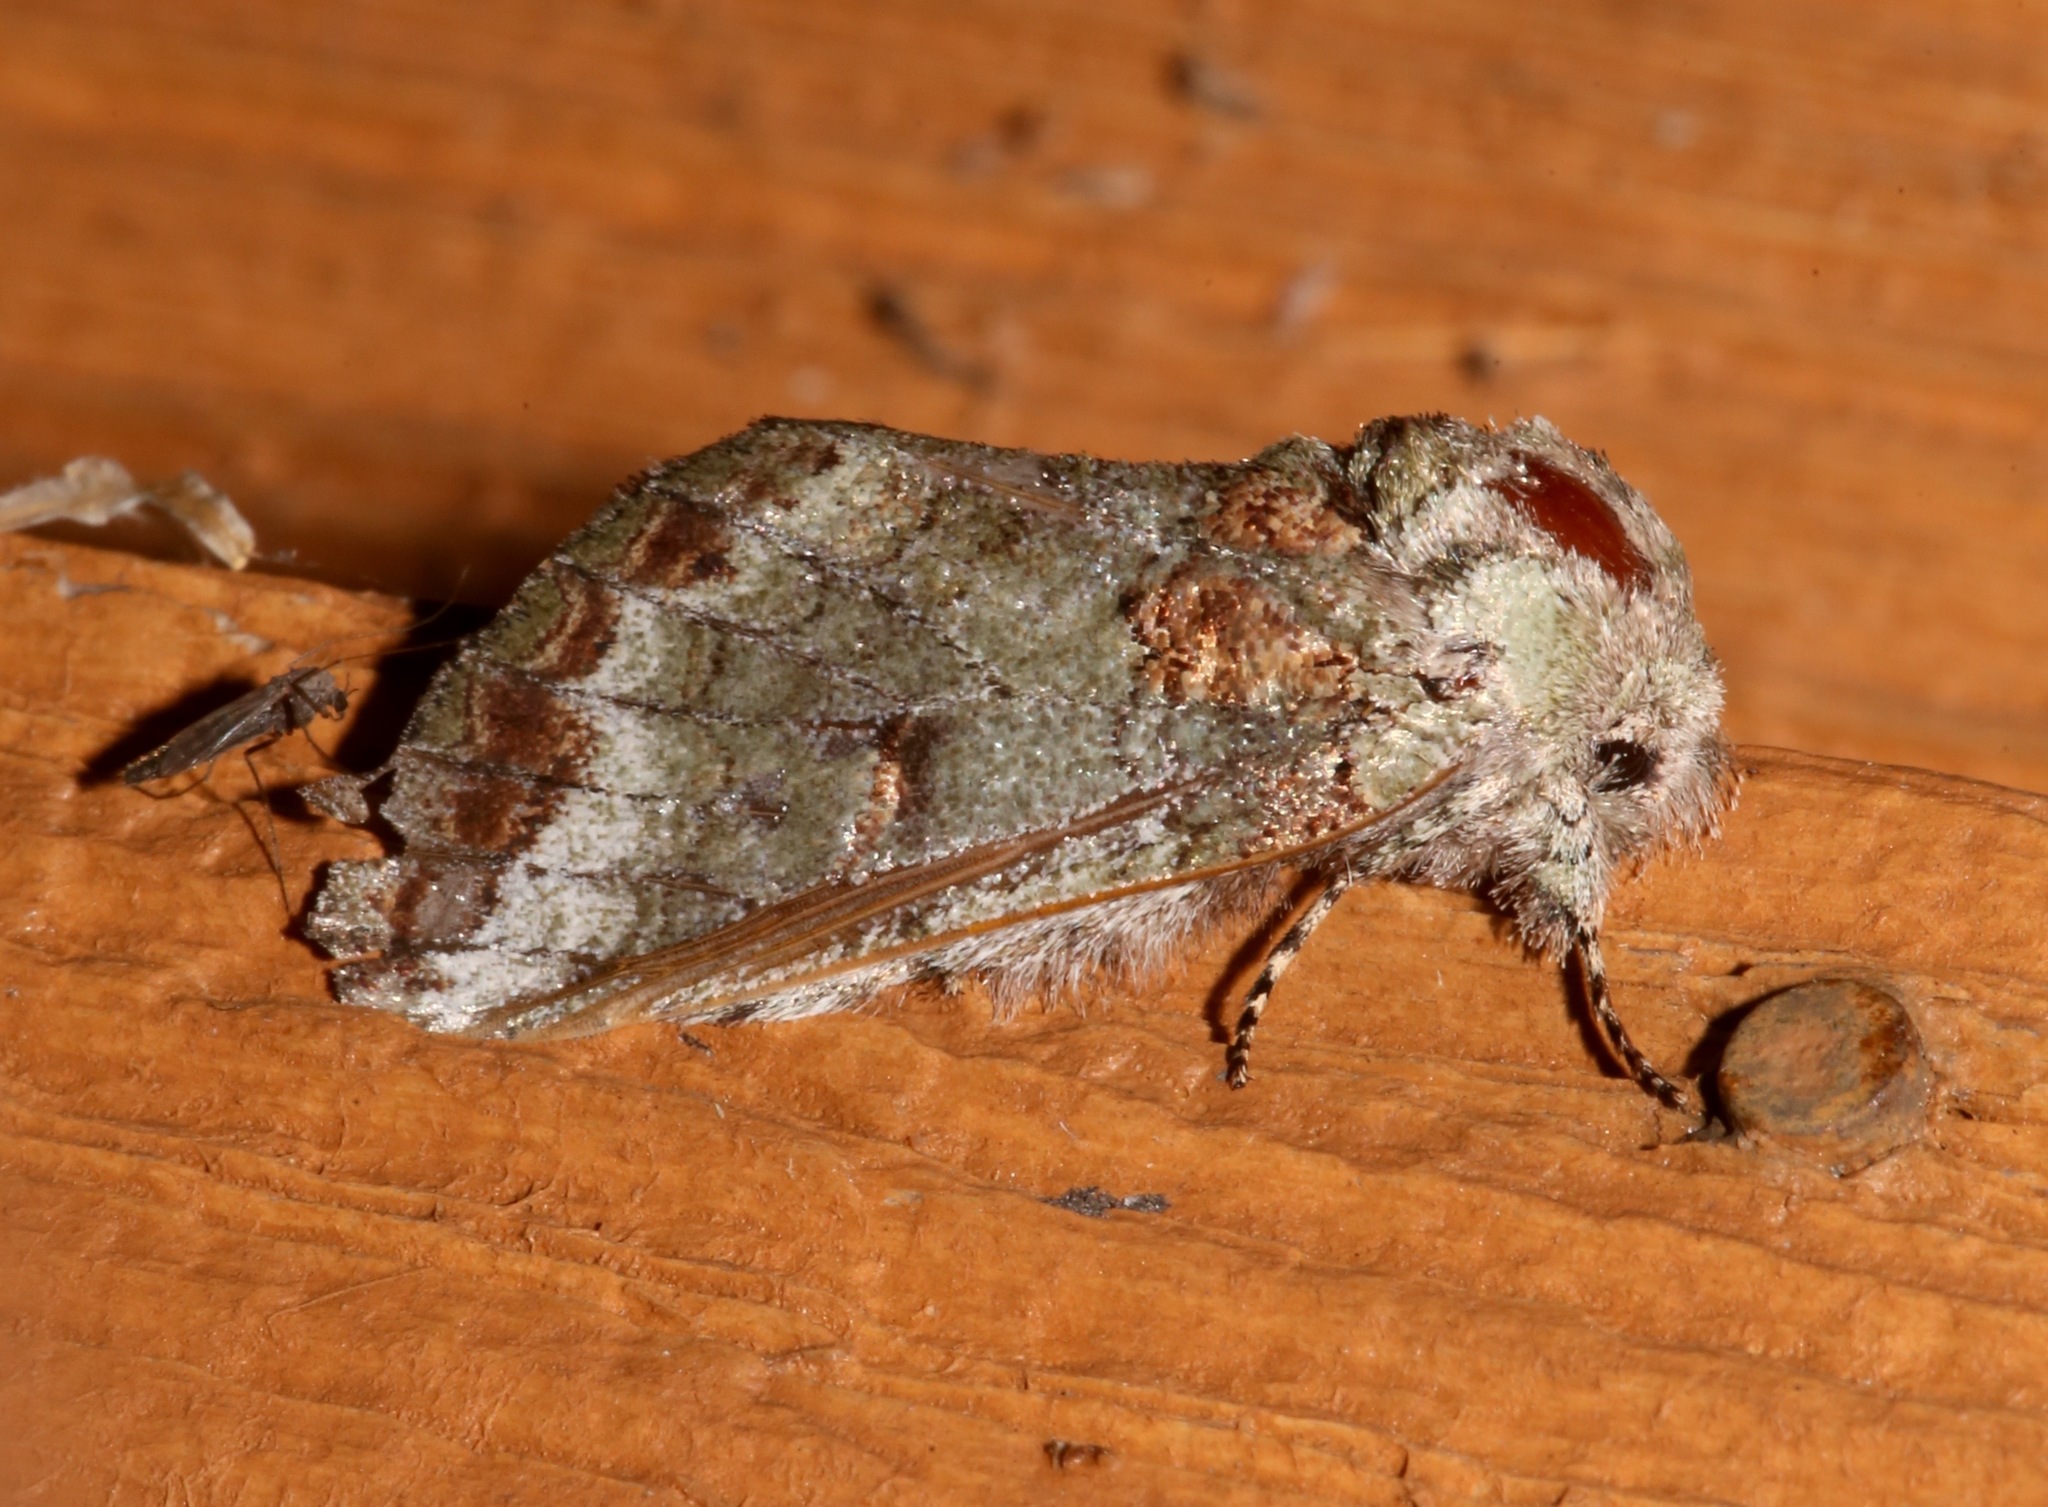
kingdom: Animalia
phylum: Arthropoda
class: Insecta
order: Lepidoptera
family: Notodontidae
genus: Heterocampa
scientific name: Heterocampa astarte
